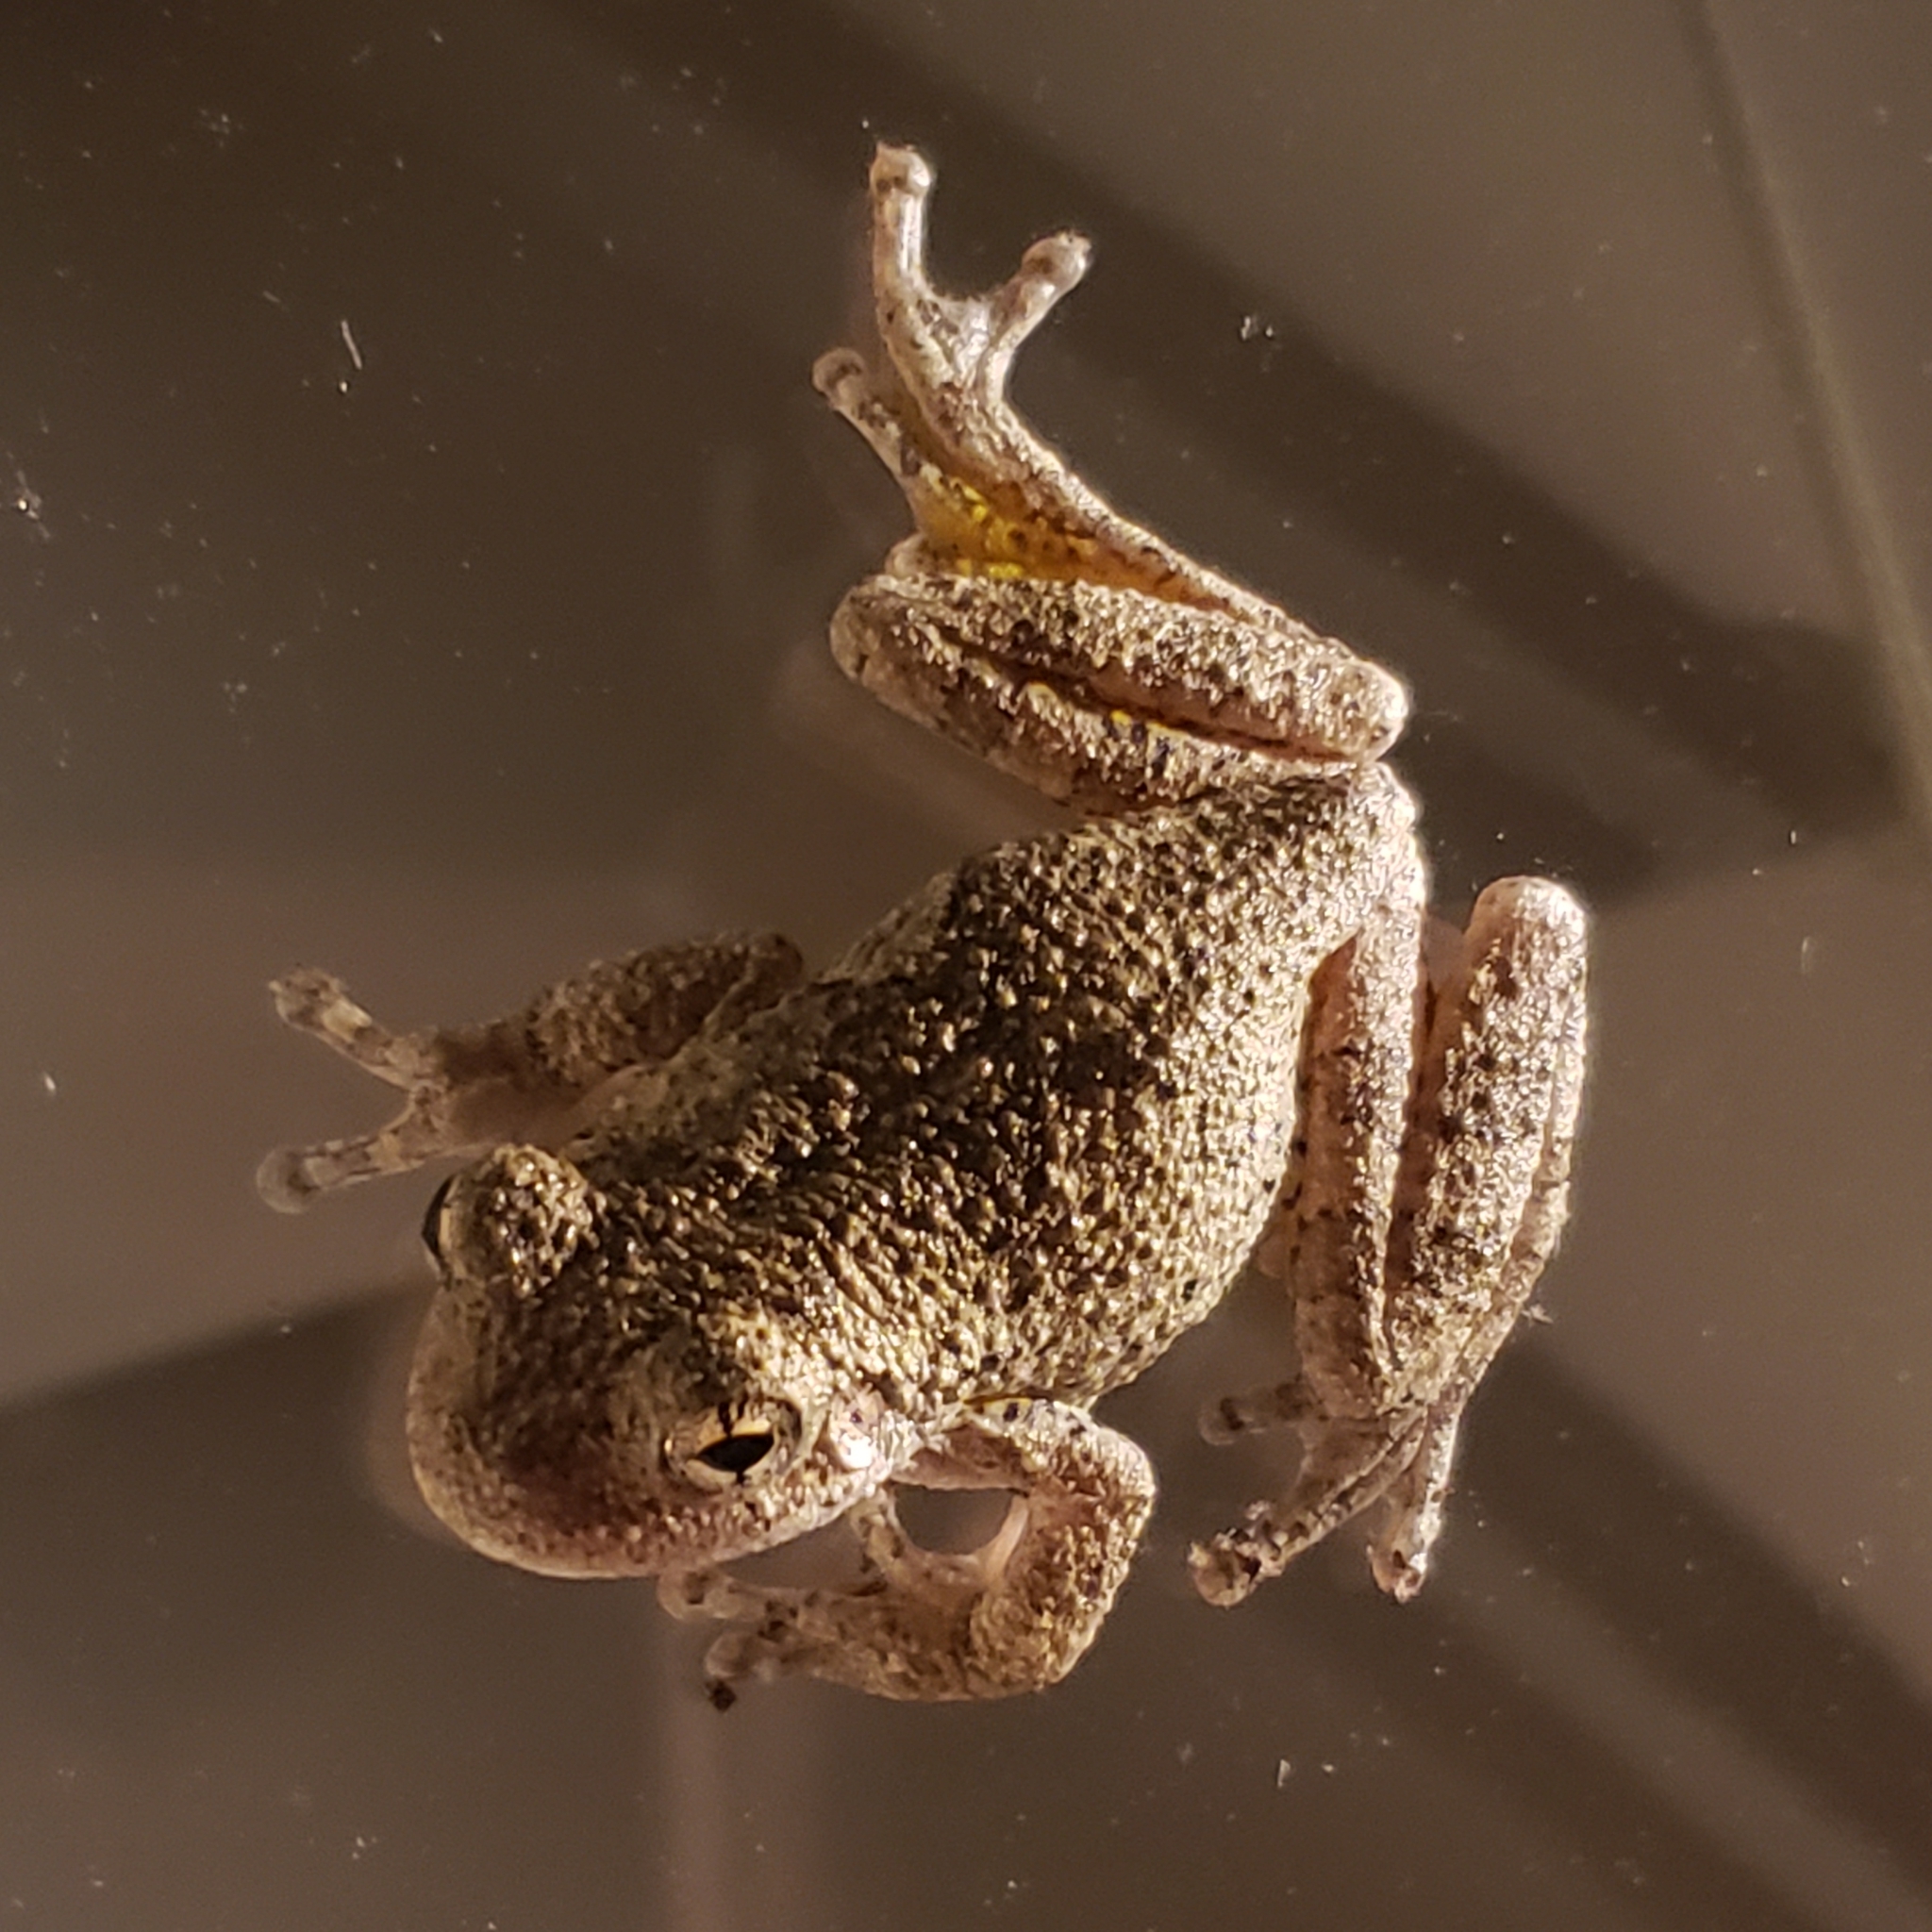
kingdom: Animalia
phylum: Chordata
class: Amphibia
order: Anura
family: Hylidae
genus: Hyla
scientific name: Hyla
